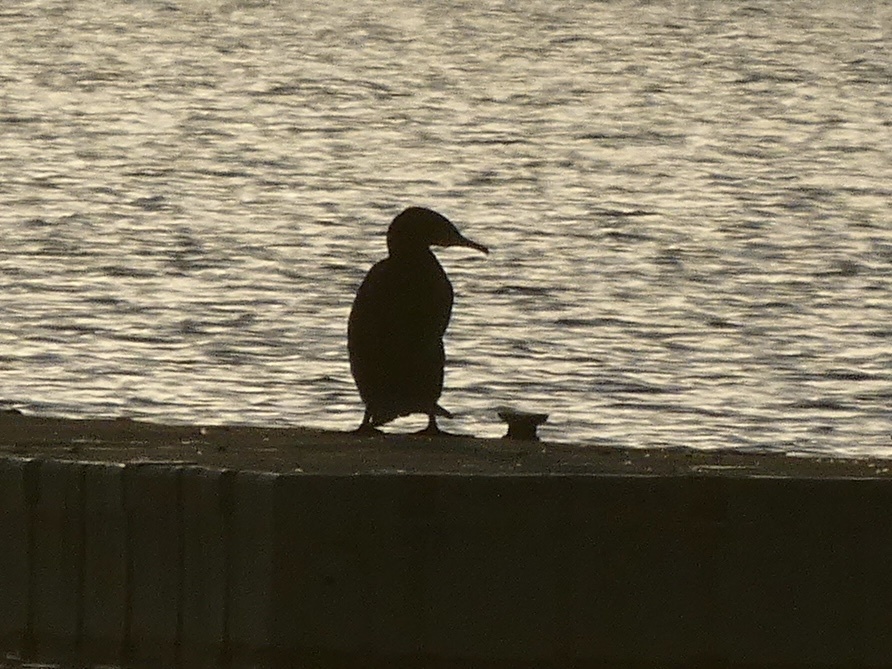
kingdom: Animalia
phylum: Chordata
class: Aves
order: Suliformes
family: Phalacrocoracidae
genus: Phalacrocorax
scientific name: Phalacrocorax carbo
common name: Great cormorant
